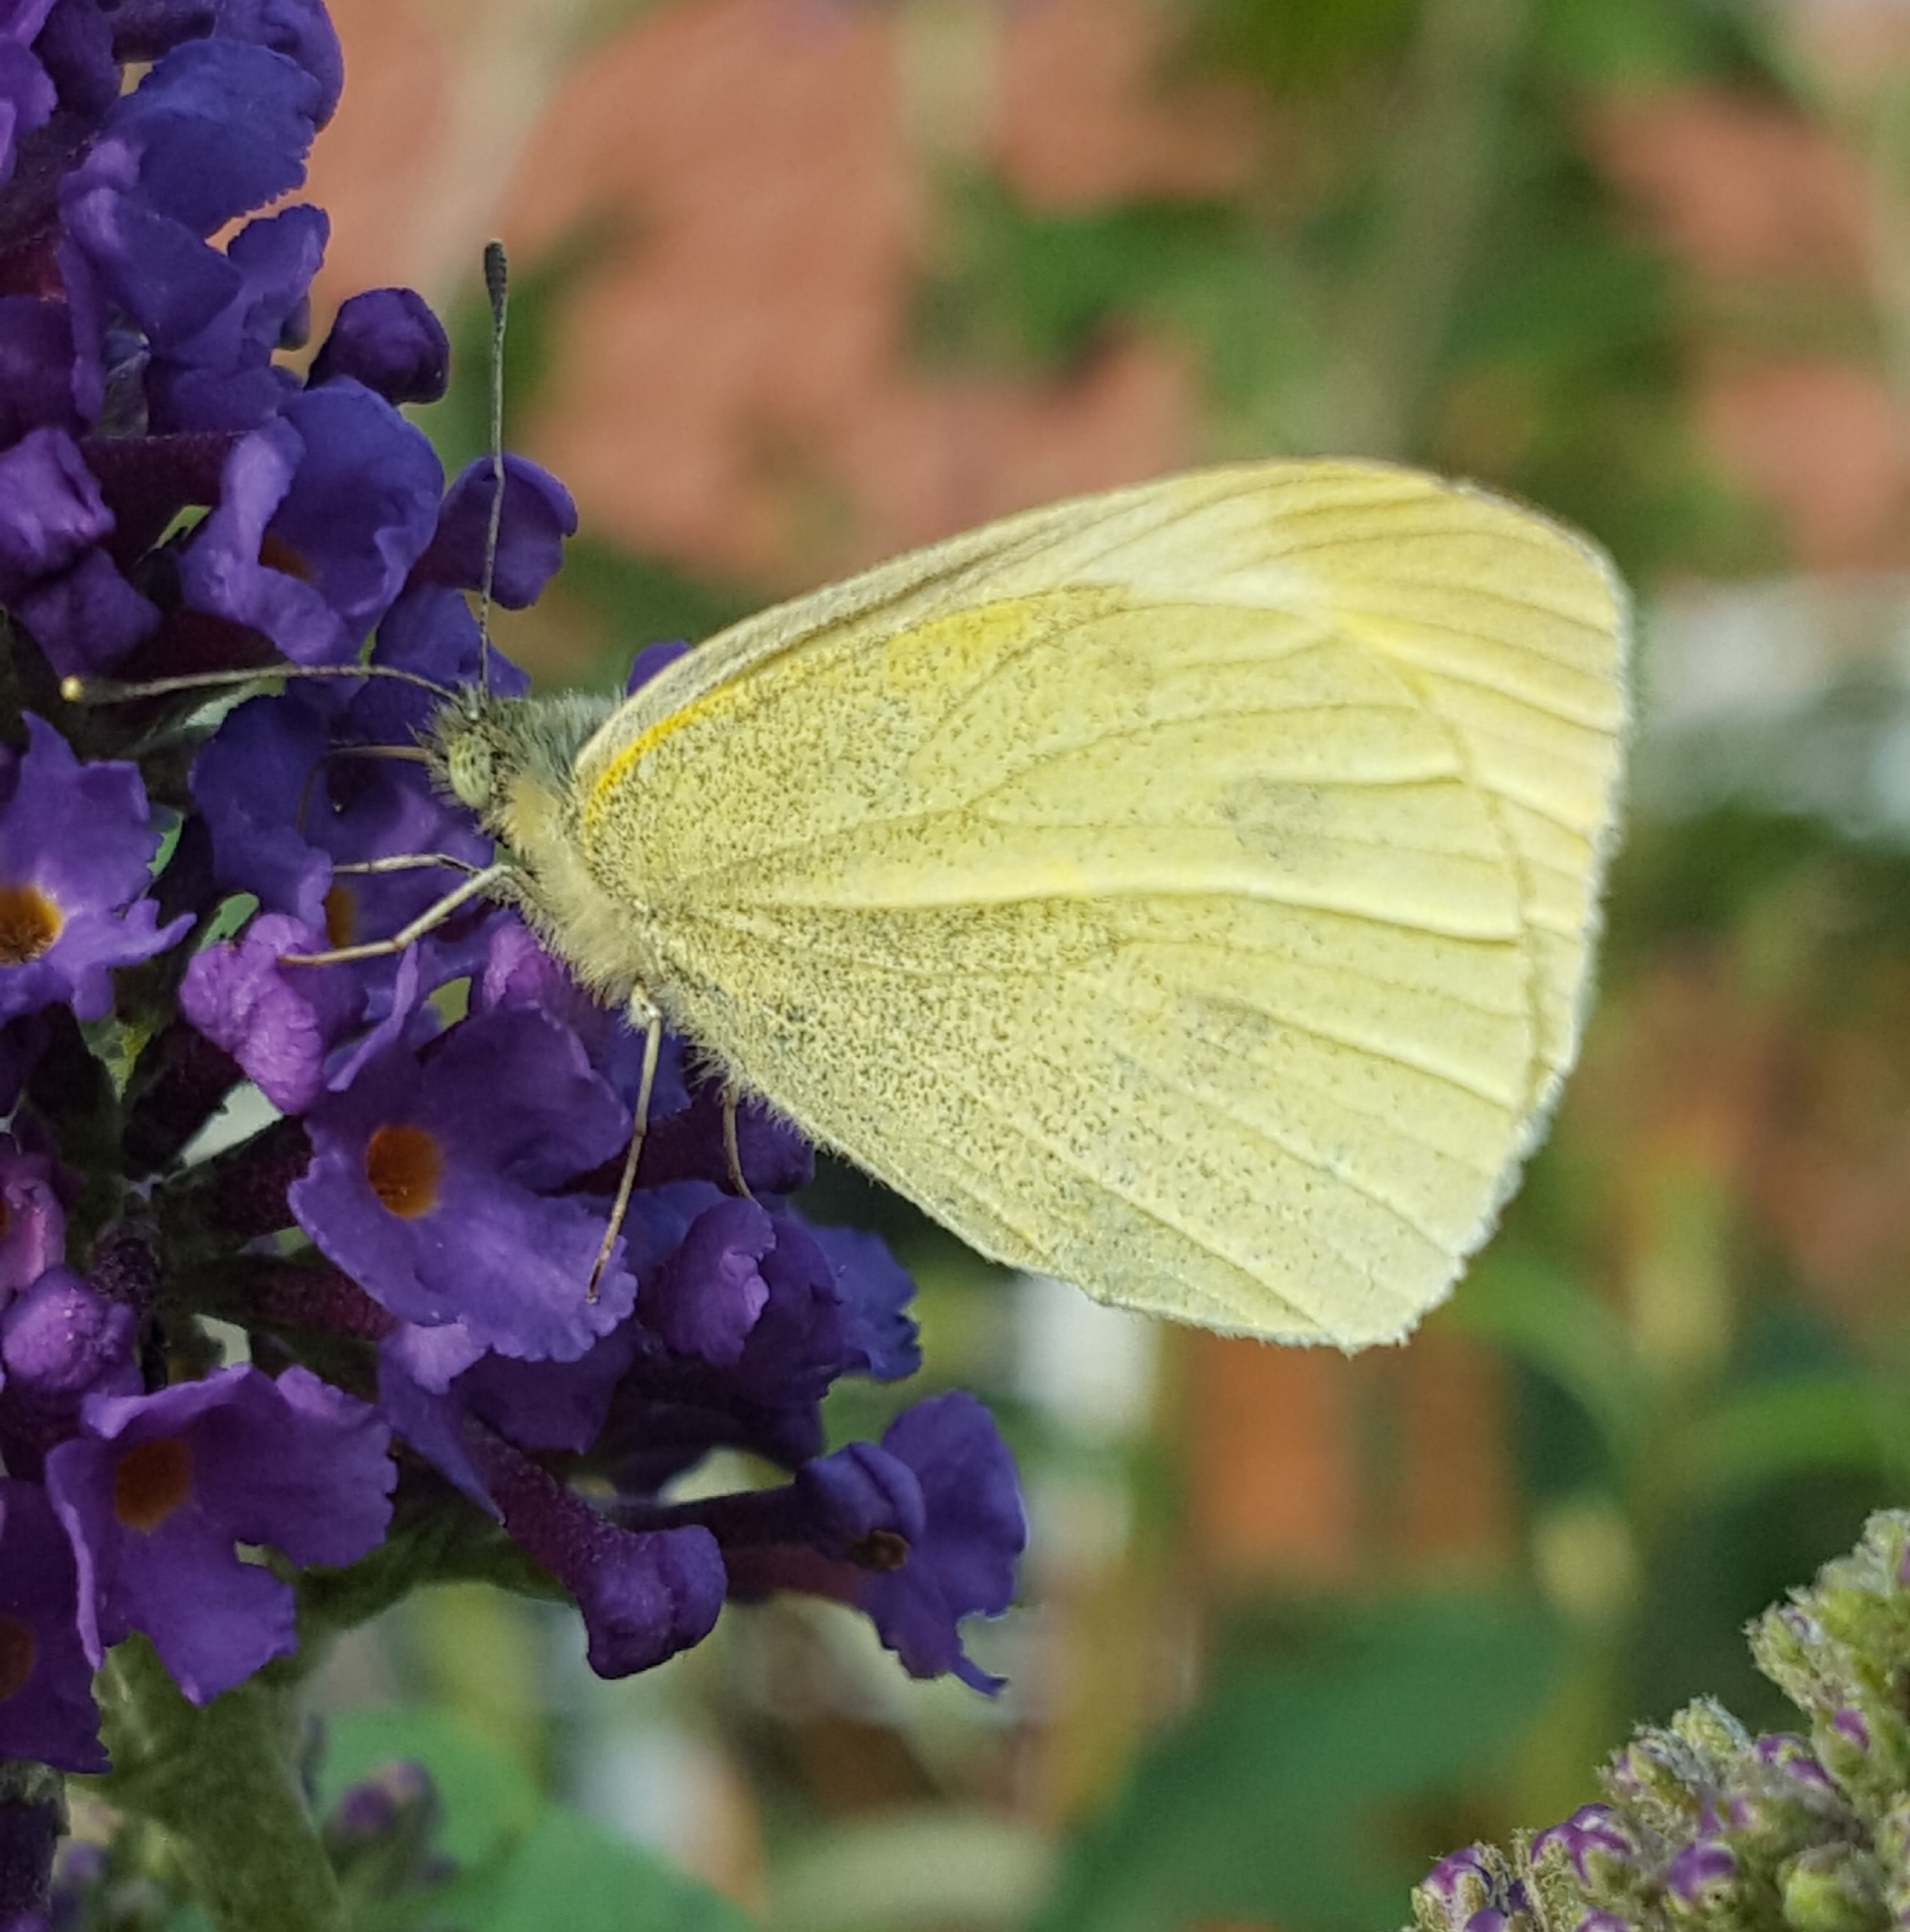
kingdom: Animalia
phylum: Arthropoda
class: Insecta
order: Lepidoptera
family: Pieridae
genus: Pieris
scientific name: Pieris rapae
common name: Small white
